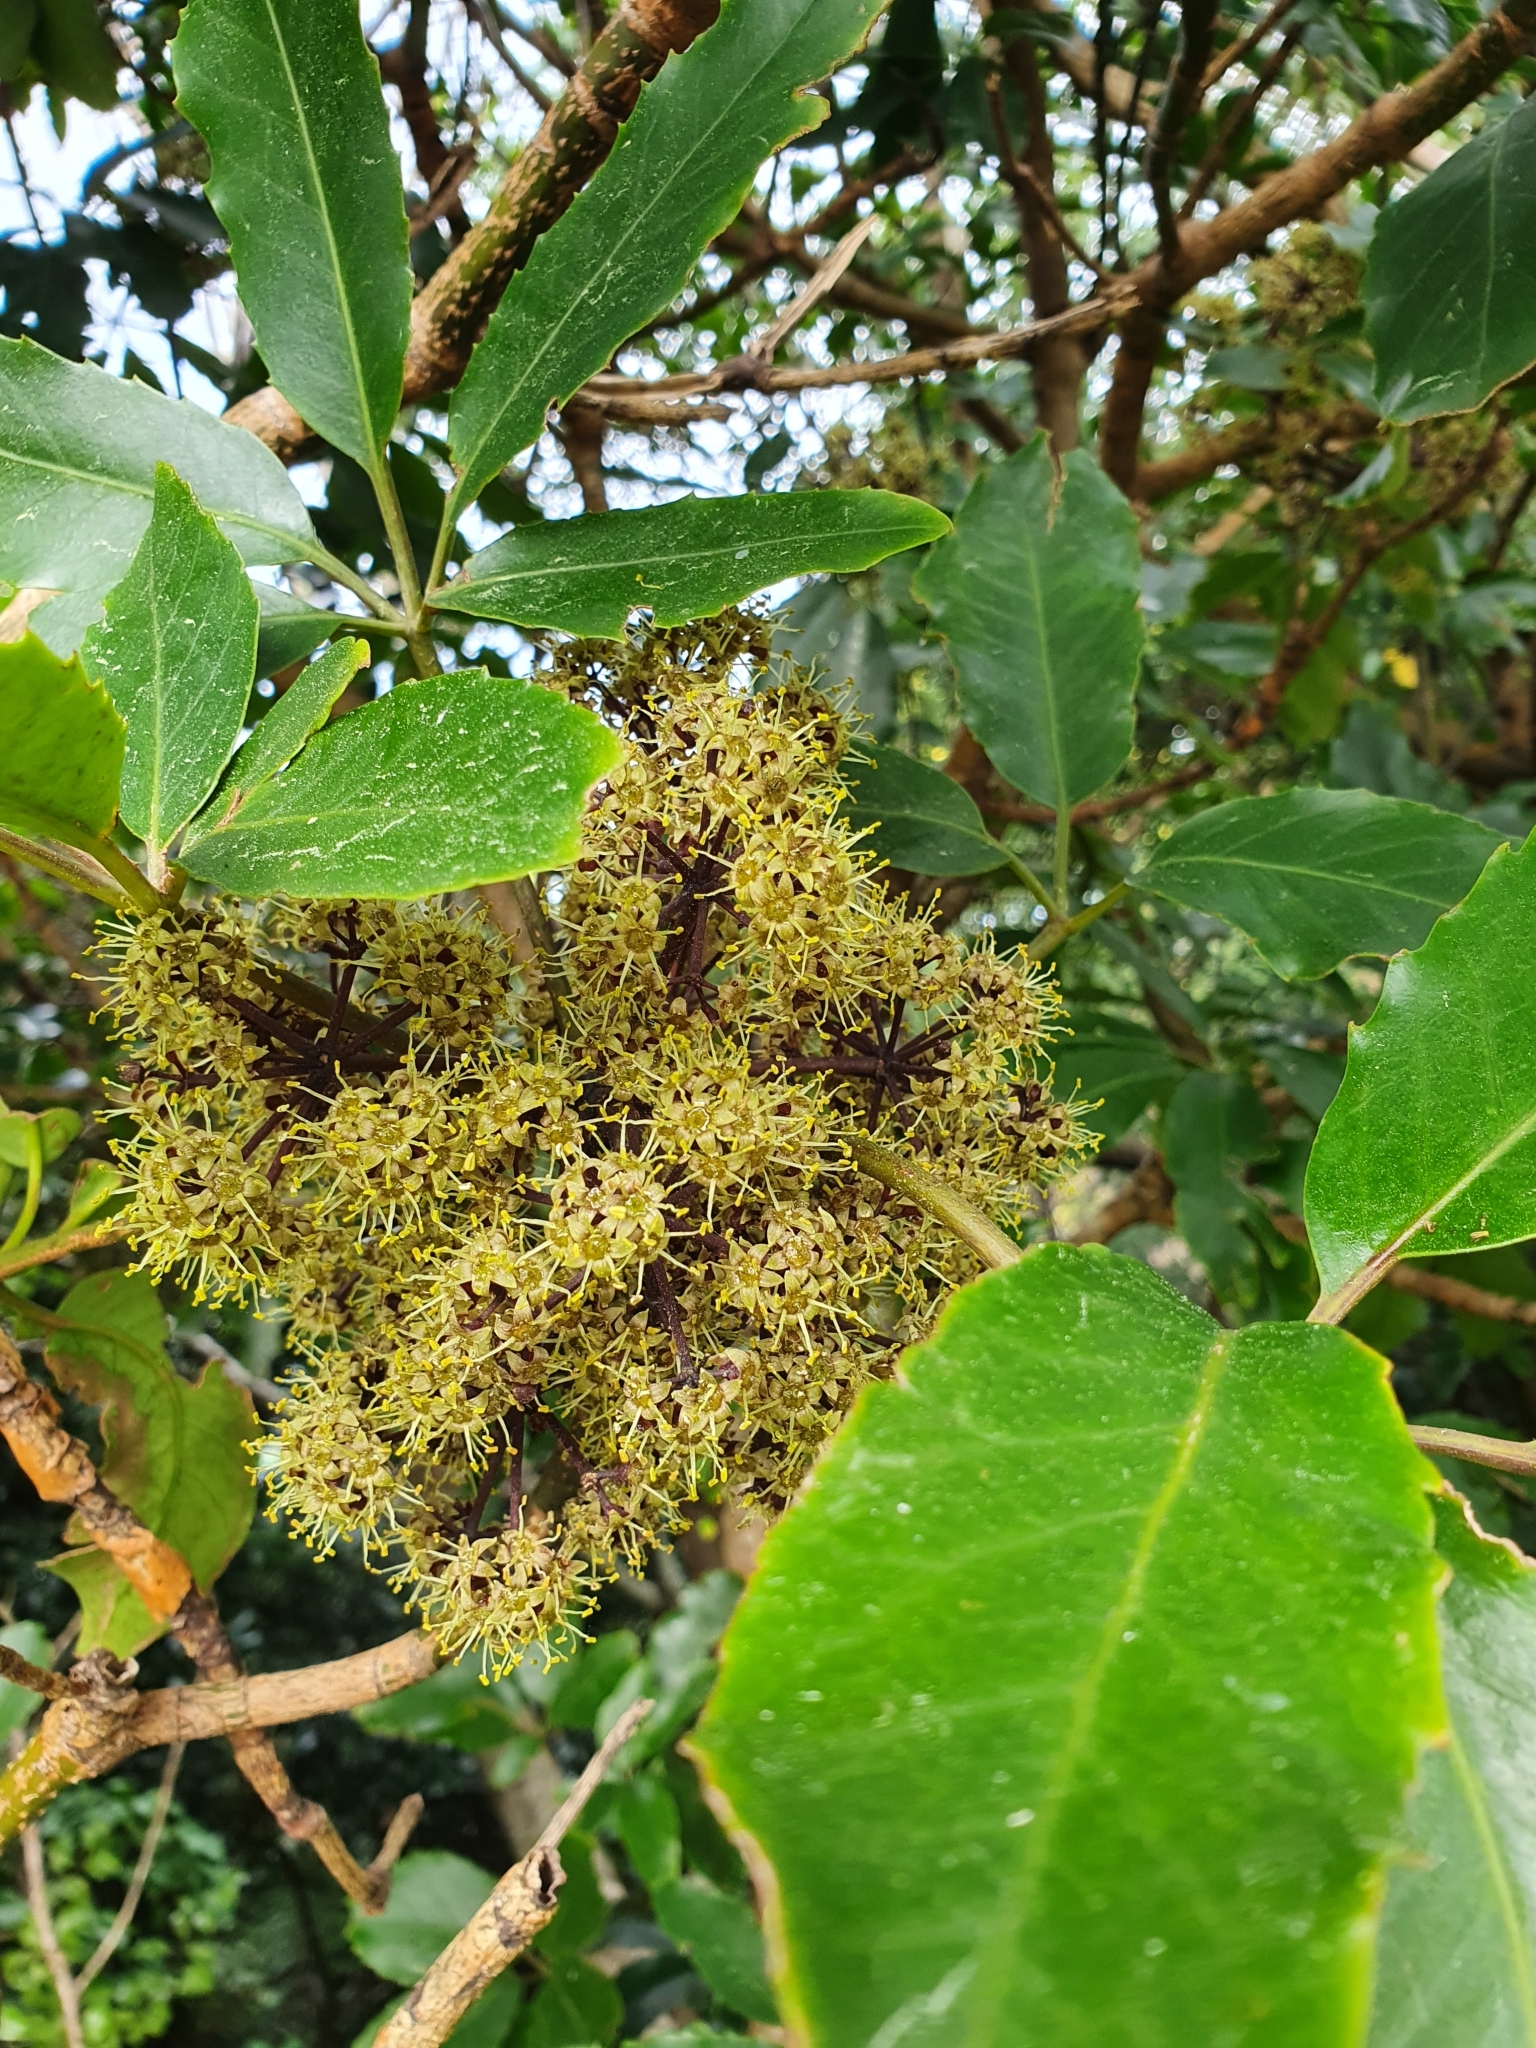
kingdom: Plantae
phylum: Tracheophyta
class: Magnoliopsida
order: Apiales
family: Araliaceae
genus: Neopanax
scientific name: Neopanax arboreus
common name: Five-fingers
